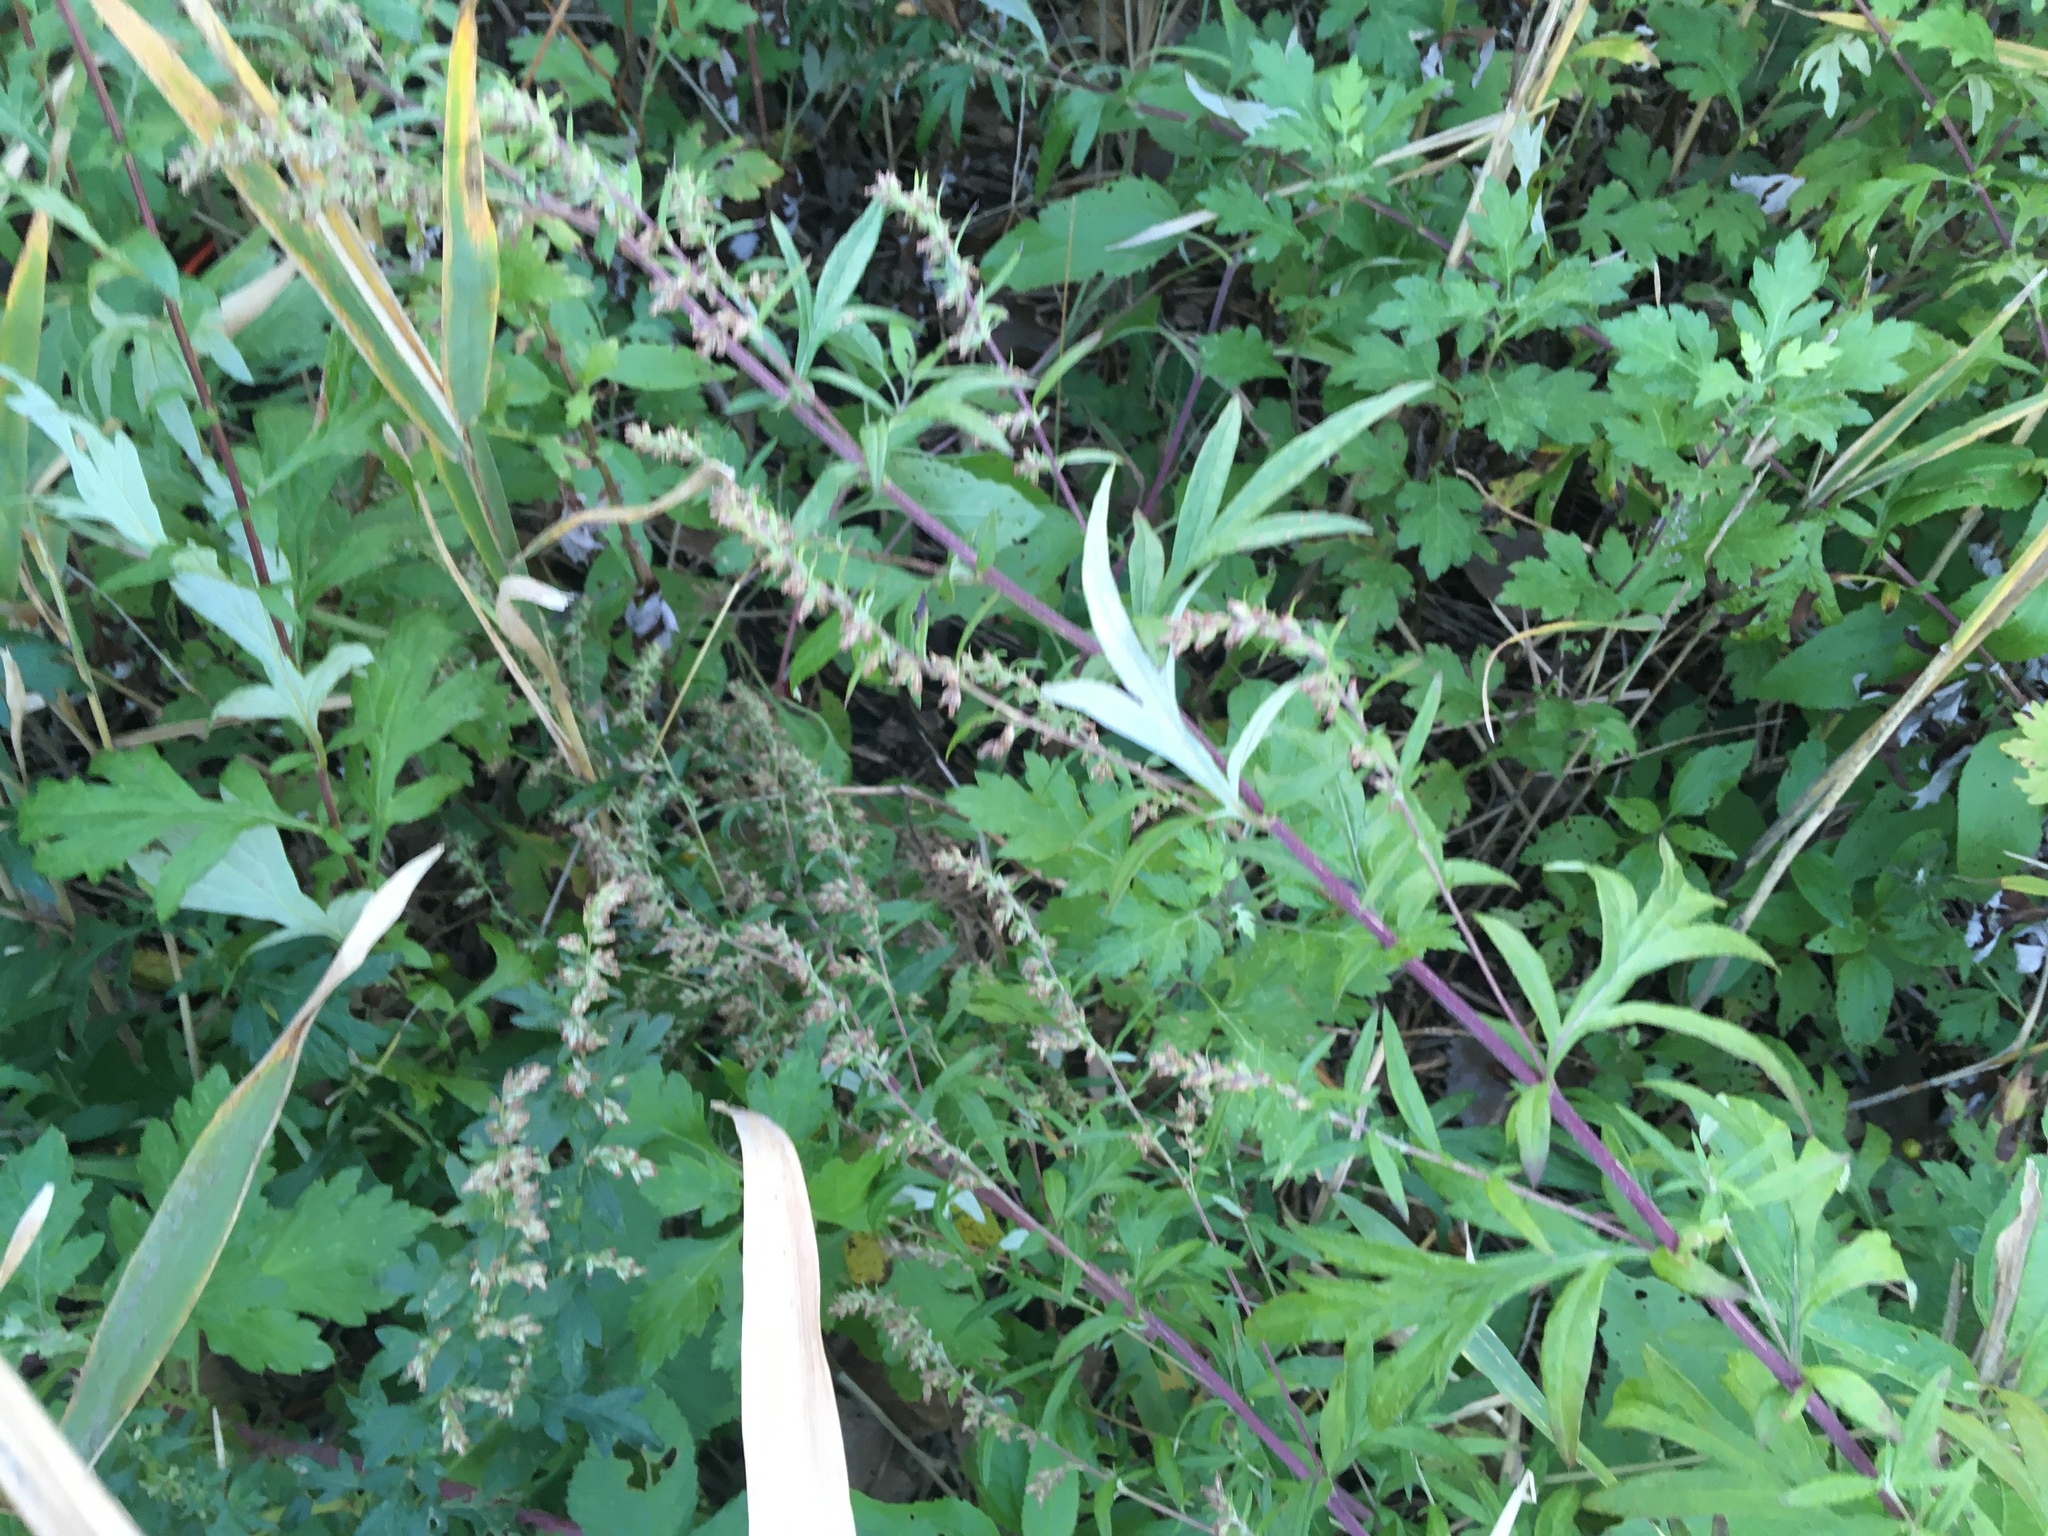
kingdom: Plantae
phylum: Tracheophyta
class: Magnoliopsida
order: Asterales
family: Asteraceae
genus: Artemisia
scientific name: Artemisia vulgaris
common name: Mugwort
